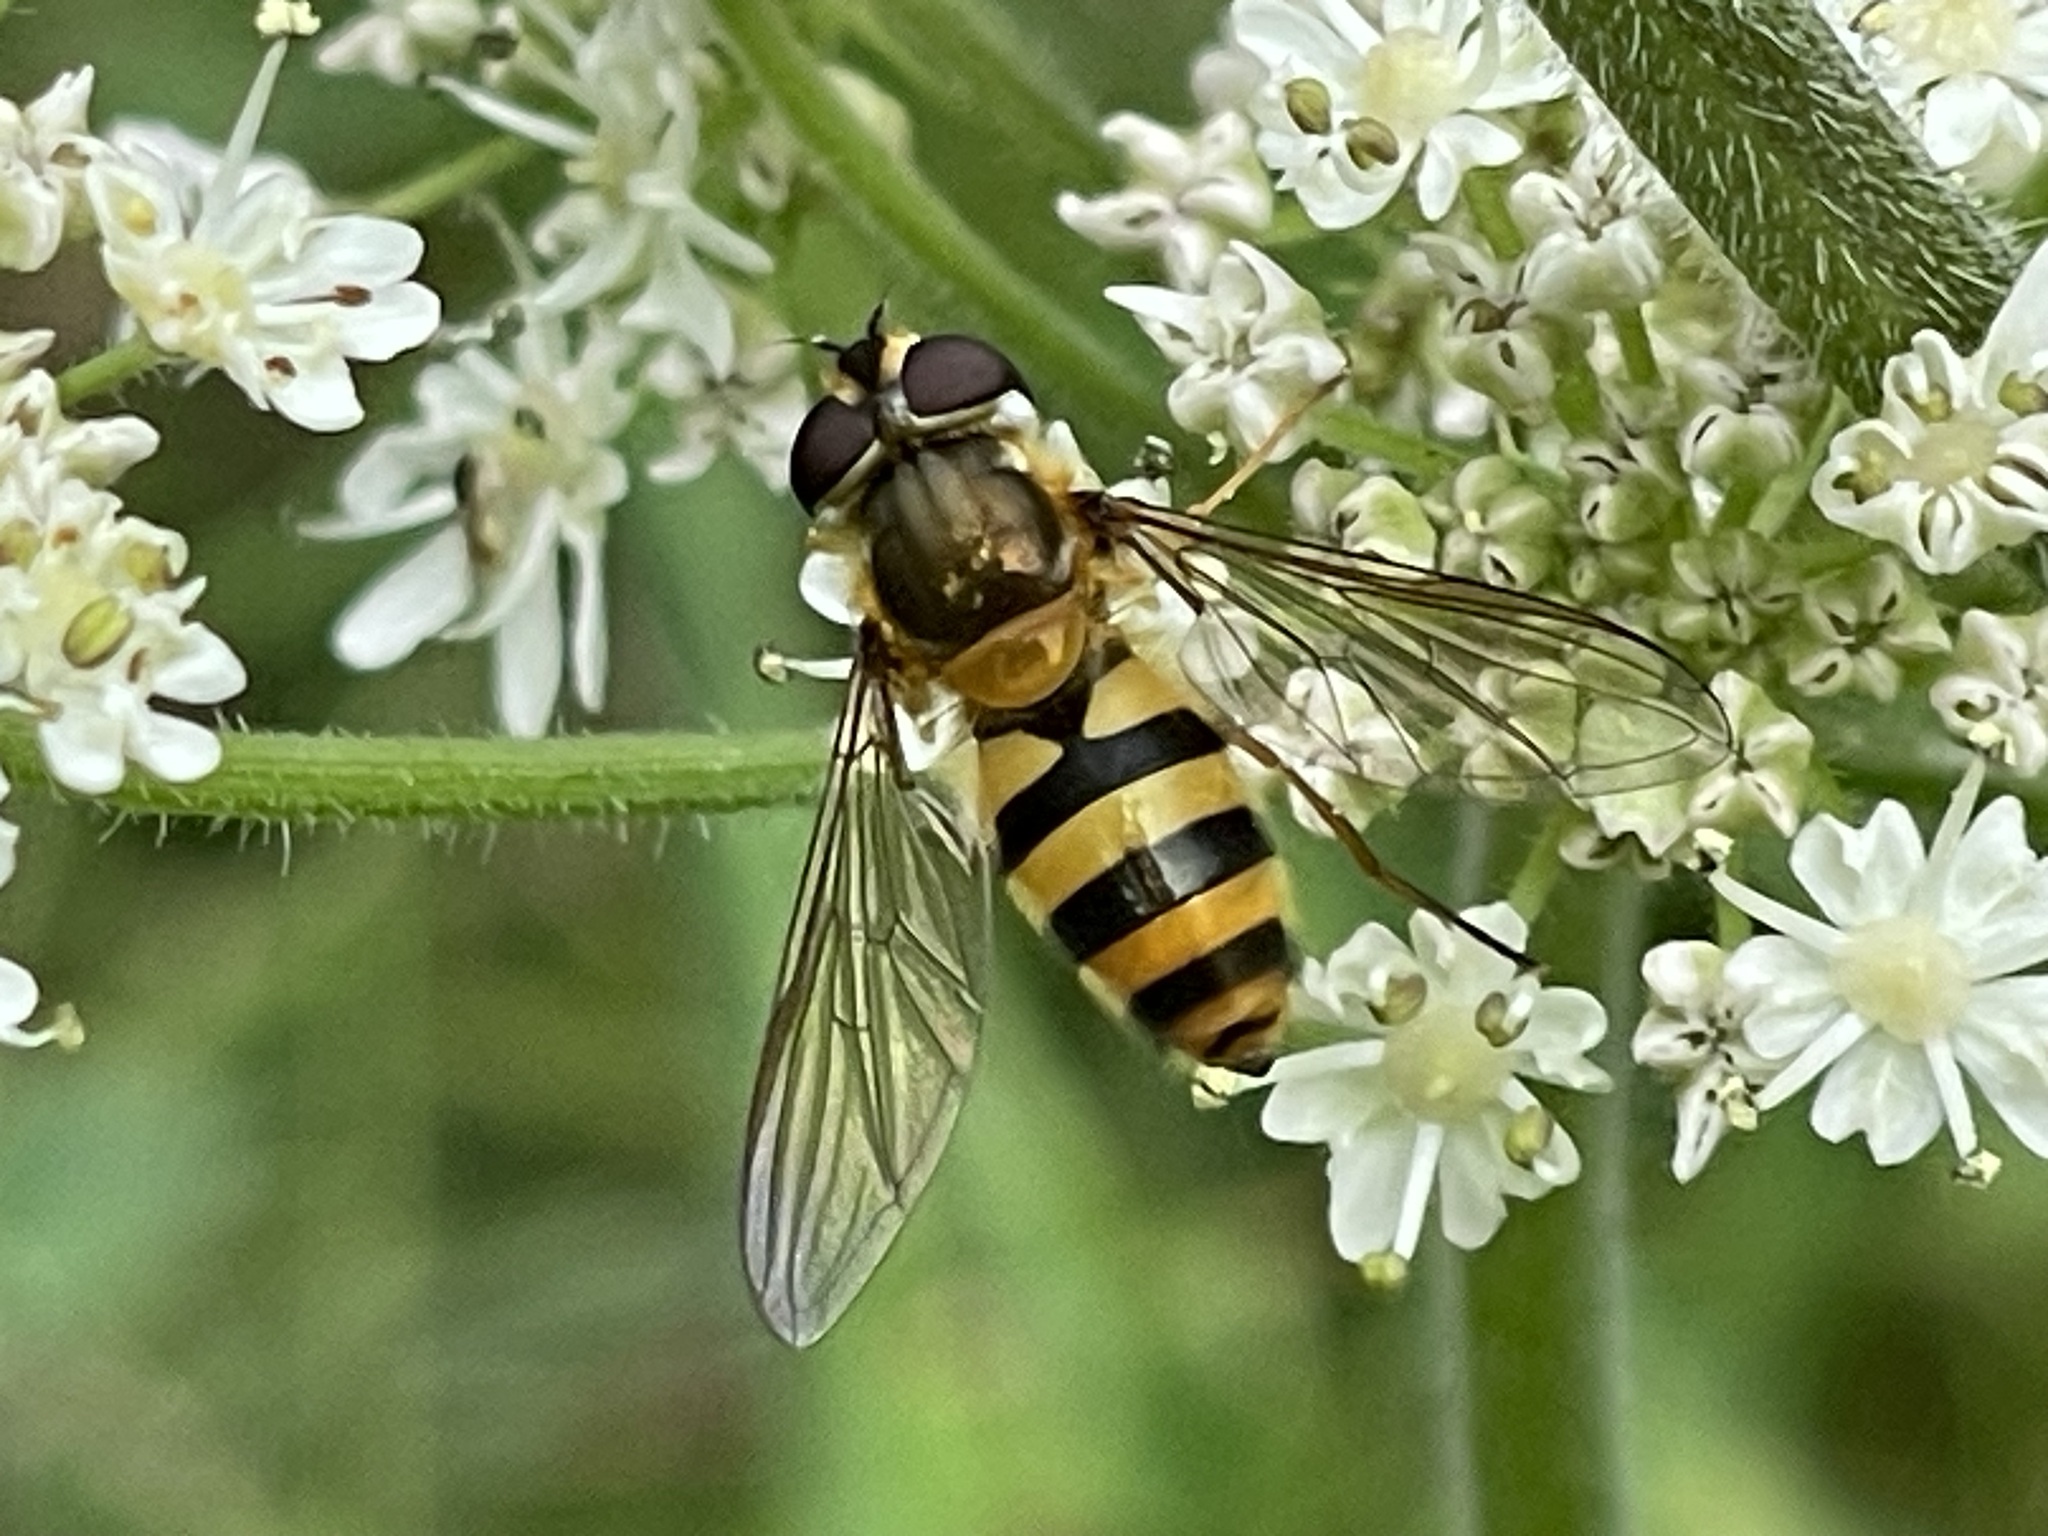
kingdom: Animalia
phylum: Arthropoda
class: Insecta
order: Diptera
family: Syrphidae
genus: Epistrophe
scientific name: Epistrophe grossulariae
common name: Black-horned smoothtail
